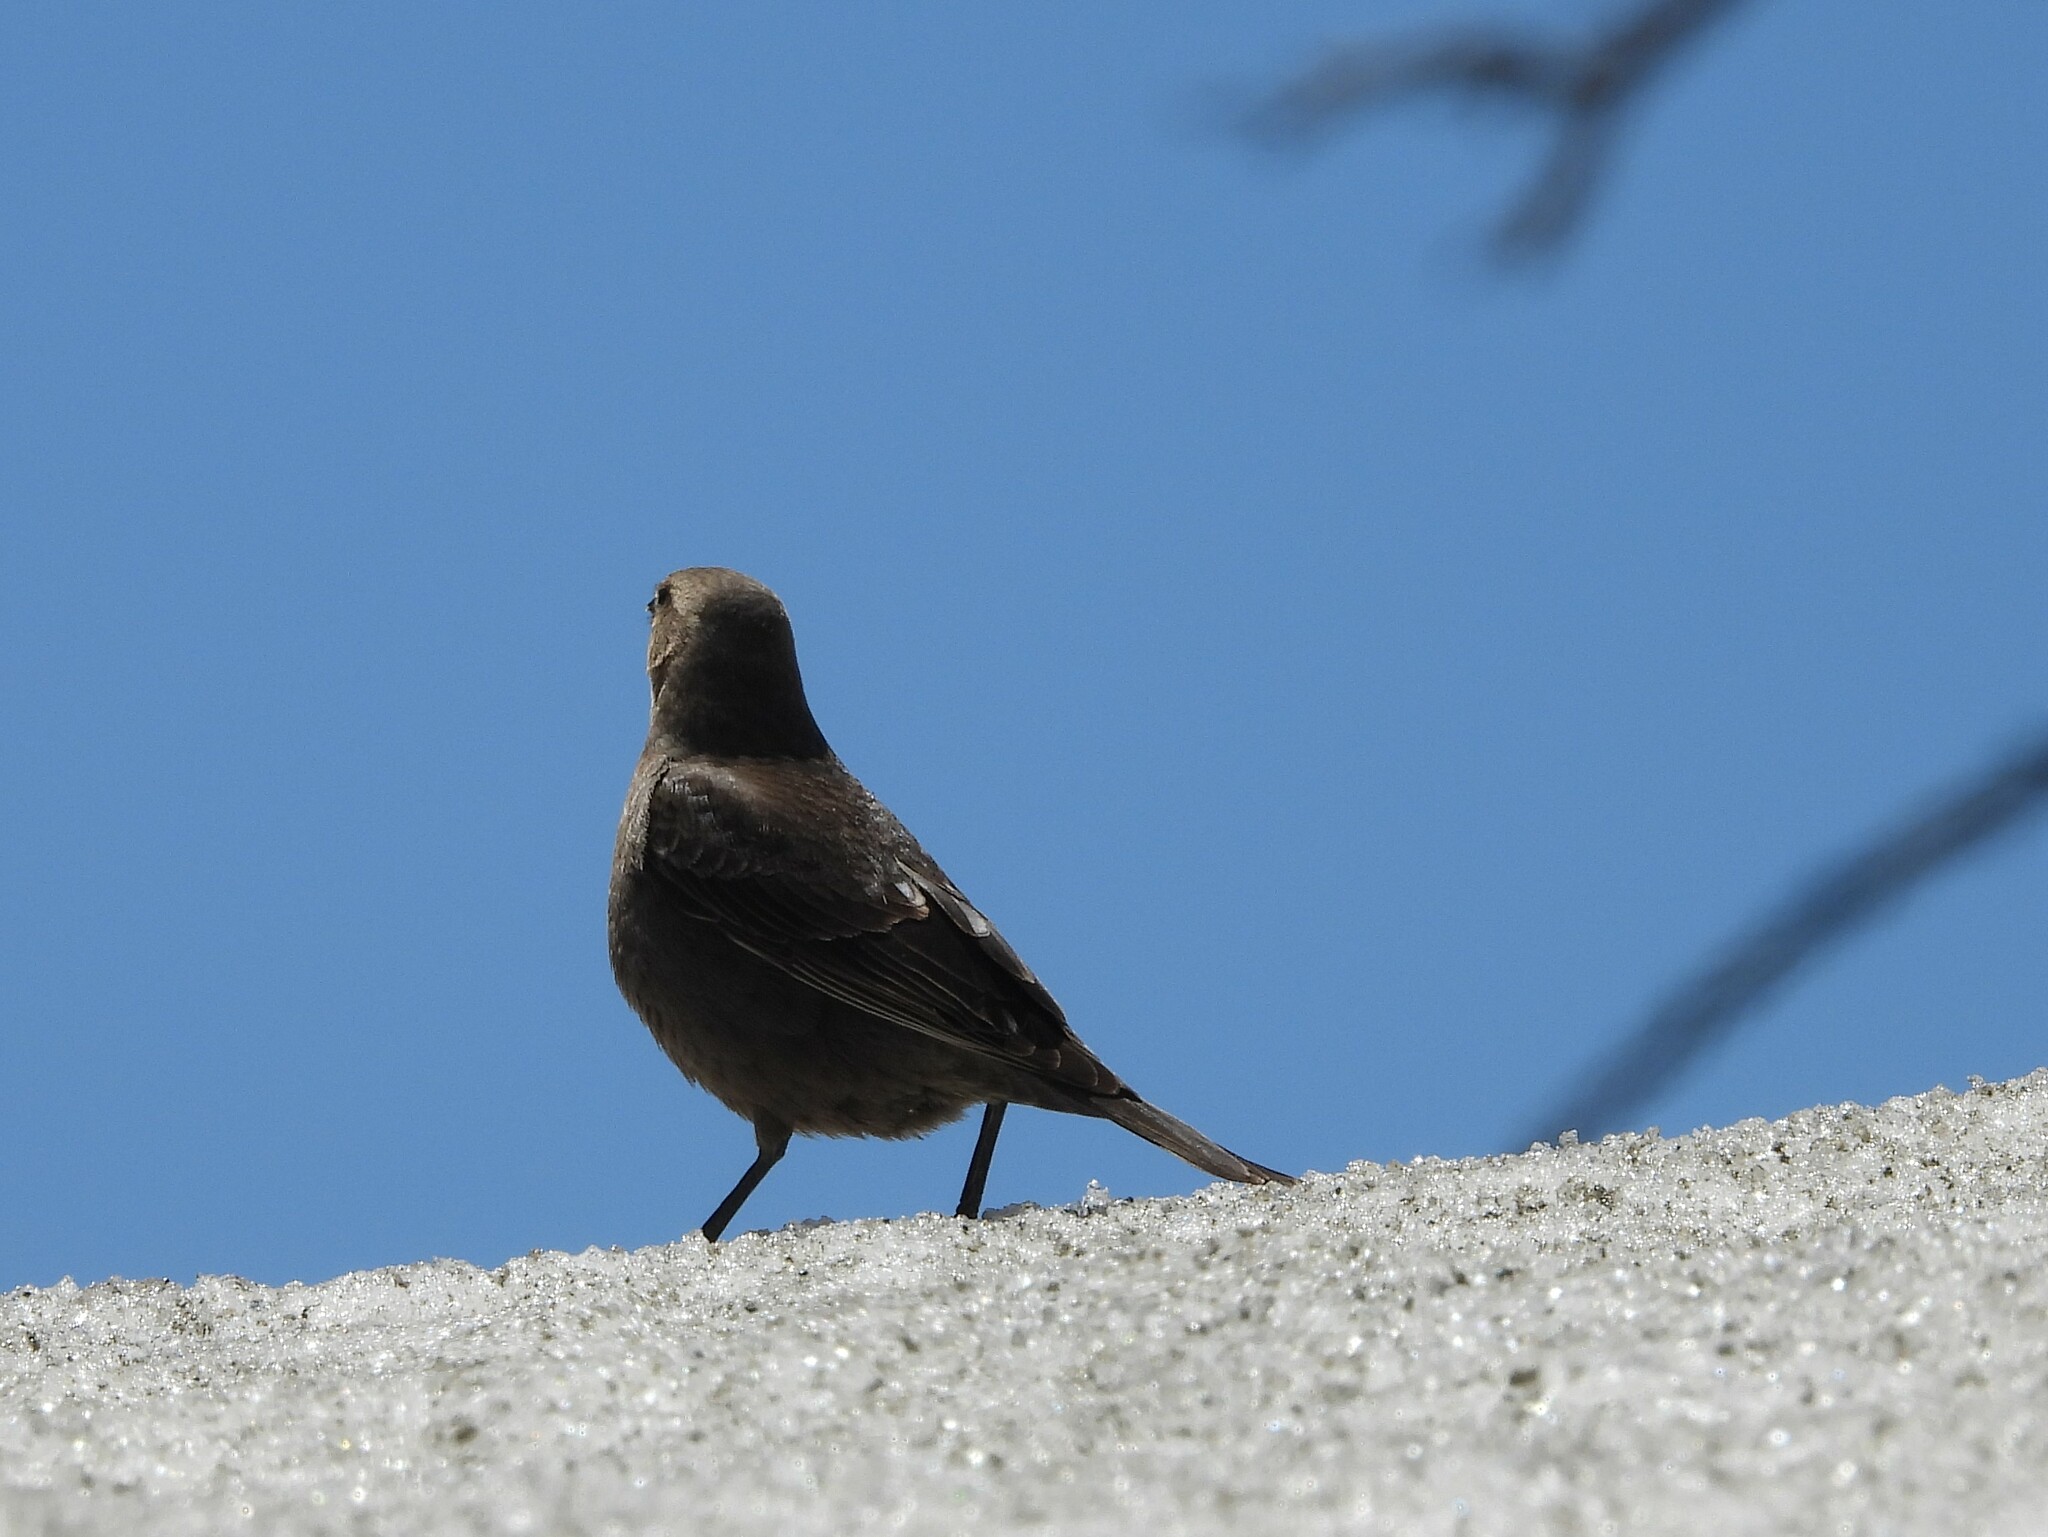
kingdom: Animalia
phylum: Chordata
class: Aves
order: Passeriformes
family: Icteridae
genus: Molothrus
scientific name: Molothrus ater
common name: Brown-headed cowbird
